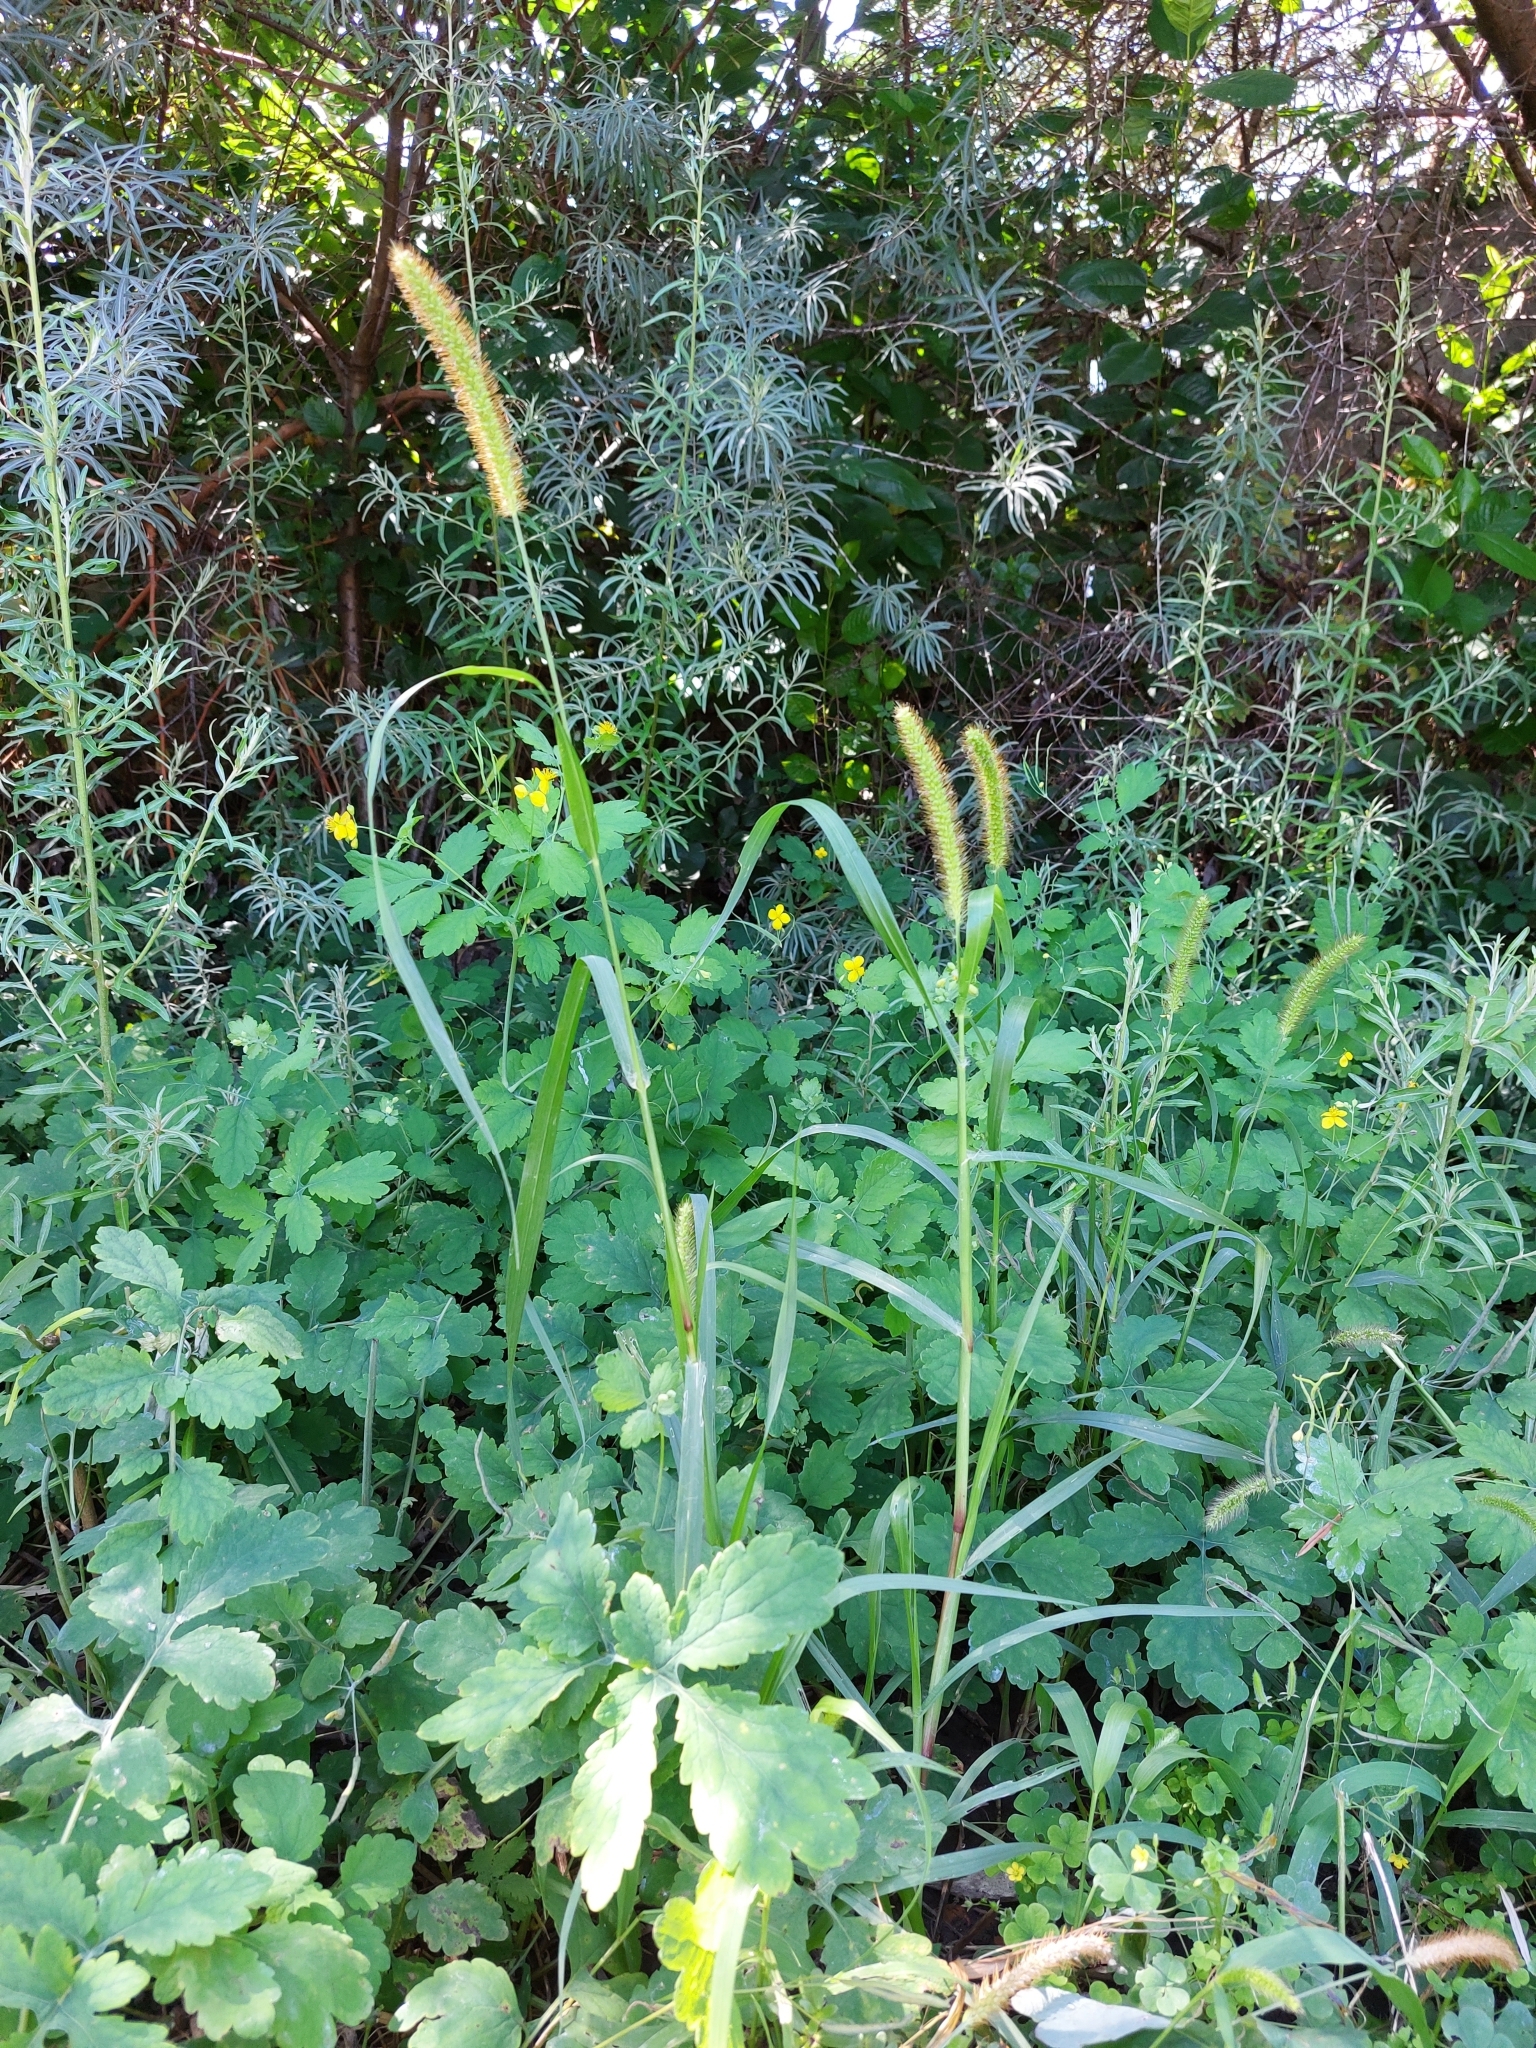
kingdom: Plantae
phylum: Tracheophyta
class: Liliopsida
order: Poales
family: Poaceae
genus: Setaria
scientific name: Setaria pumila
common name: Yellow bristle-grass
